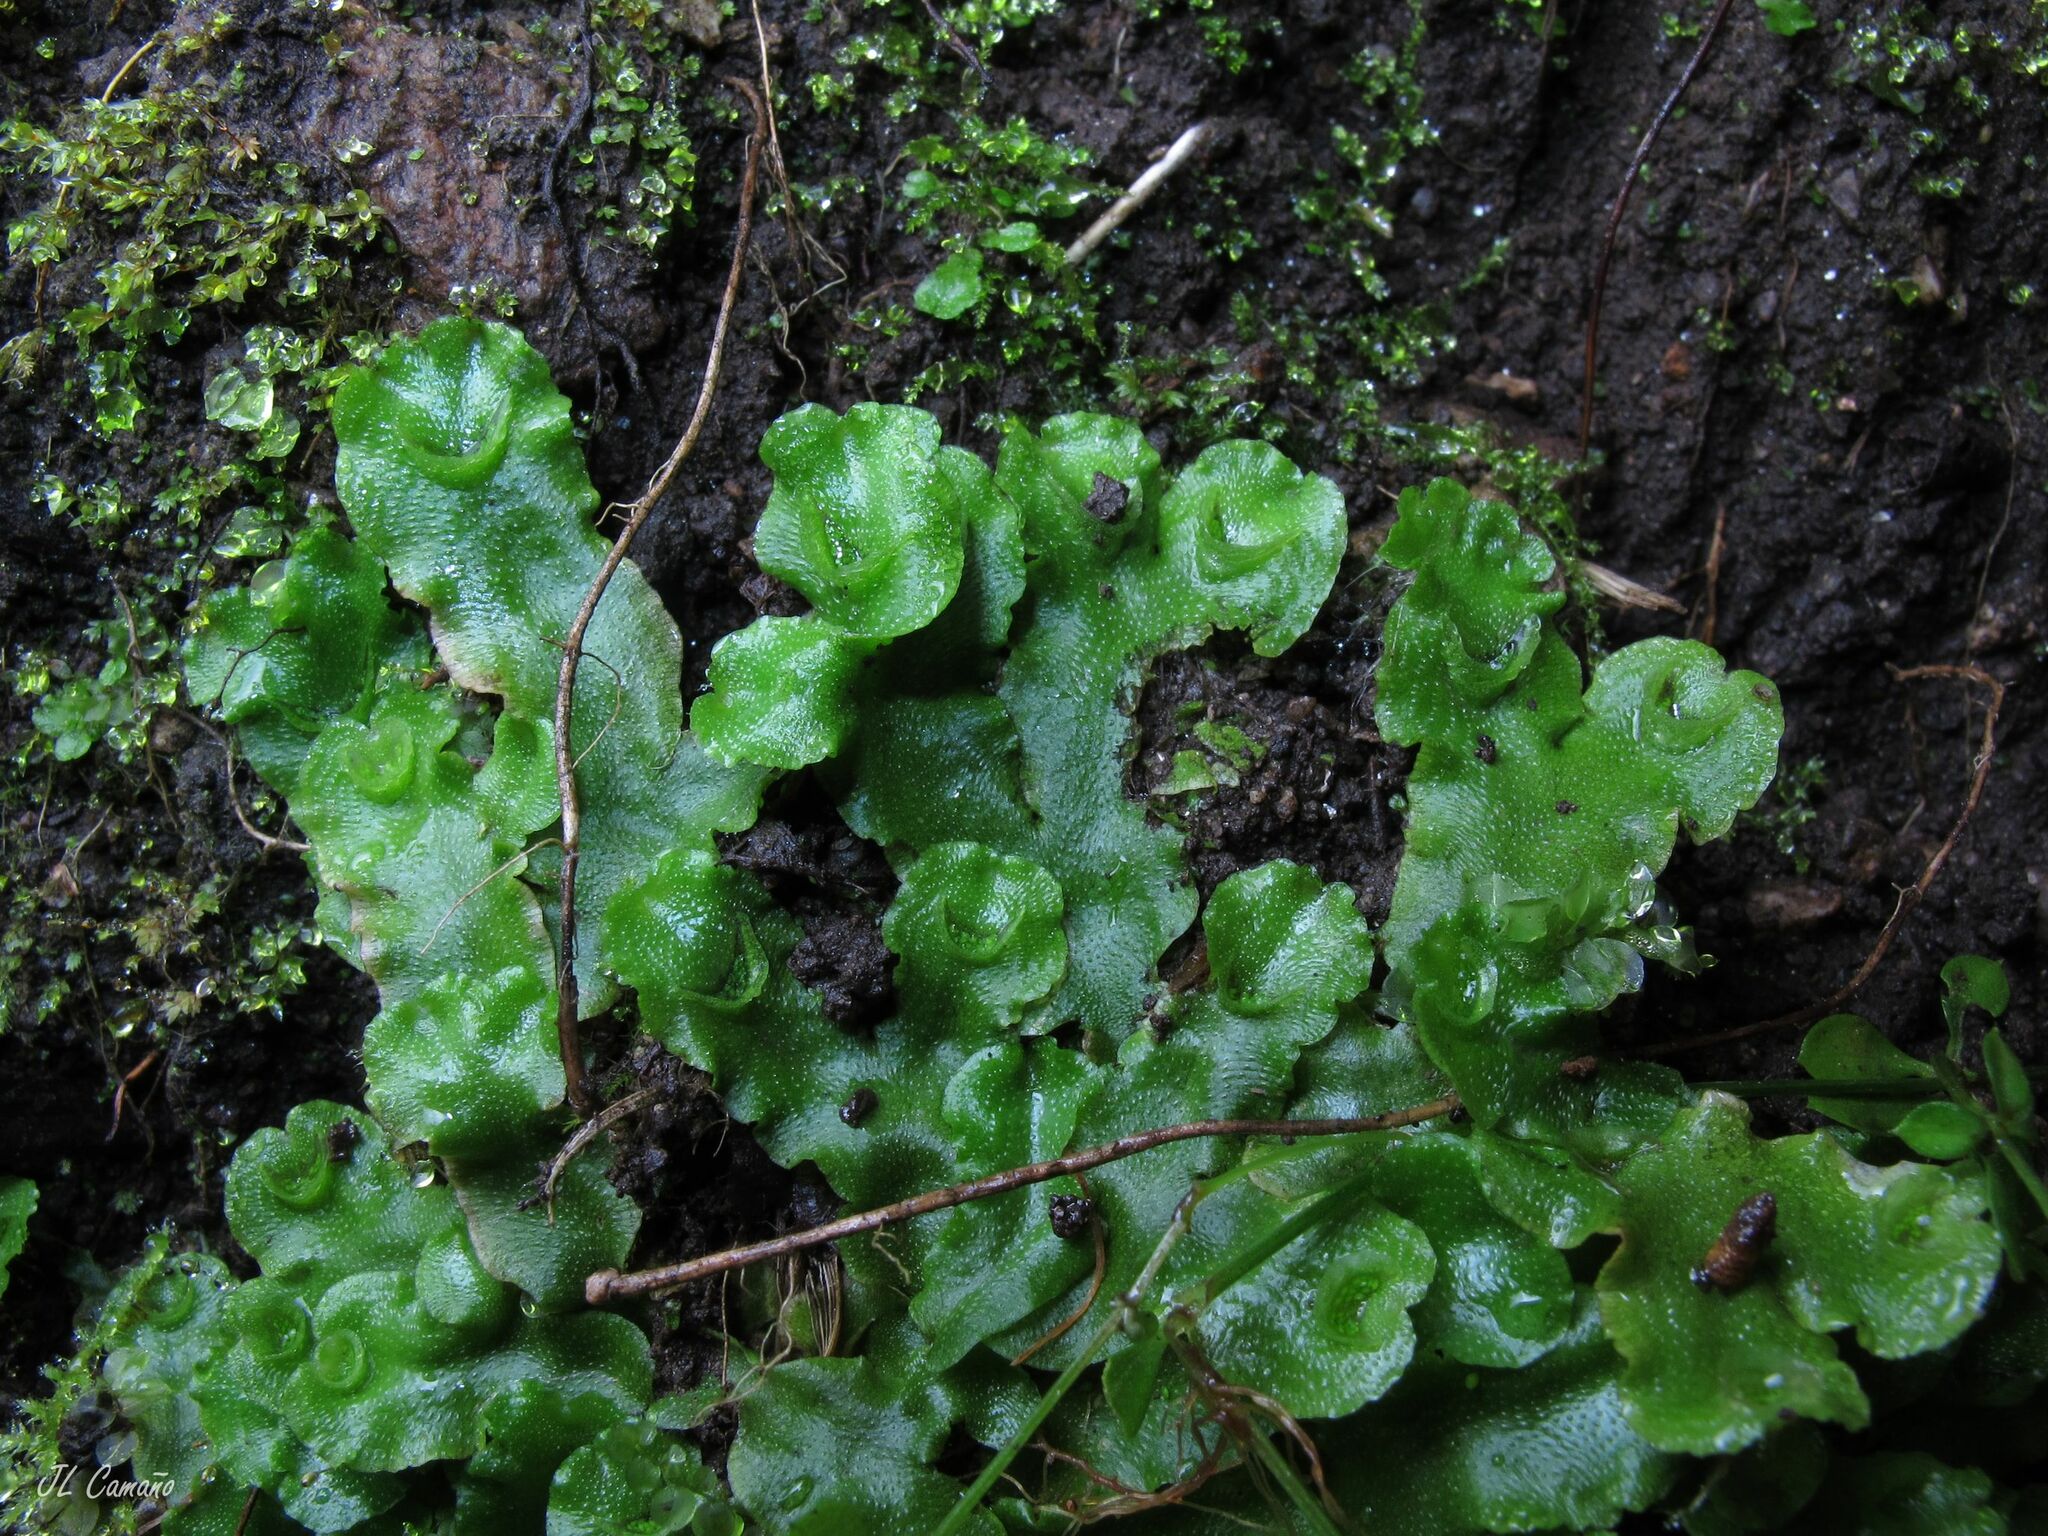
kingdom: Plantae
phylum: Marchantiophyta
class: Marchantiopsida
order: Lunulariales
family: Lunulariaceae
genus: Lunularia
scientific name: Lunularia cruciata
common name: Crescent-cup liverwort
